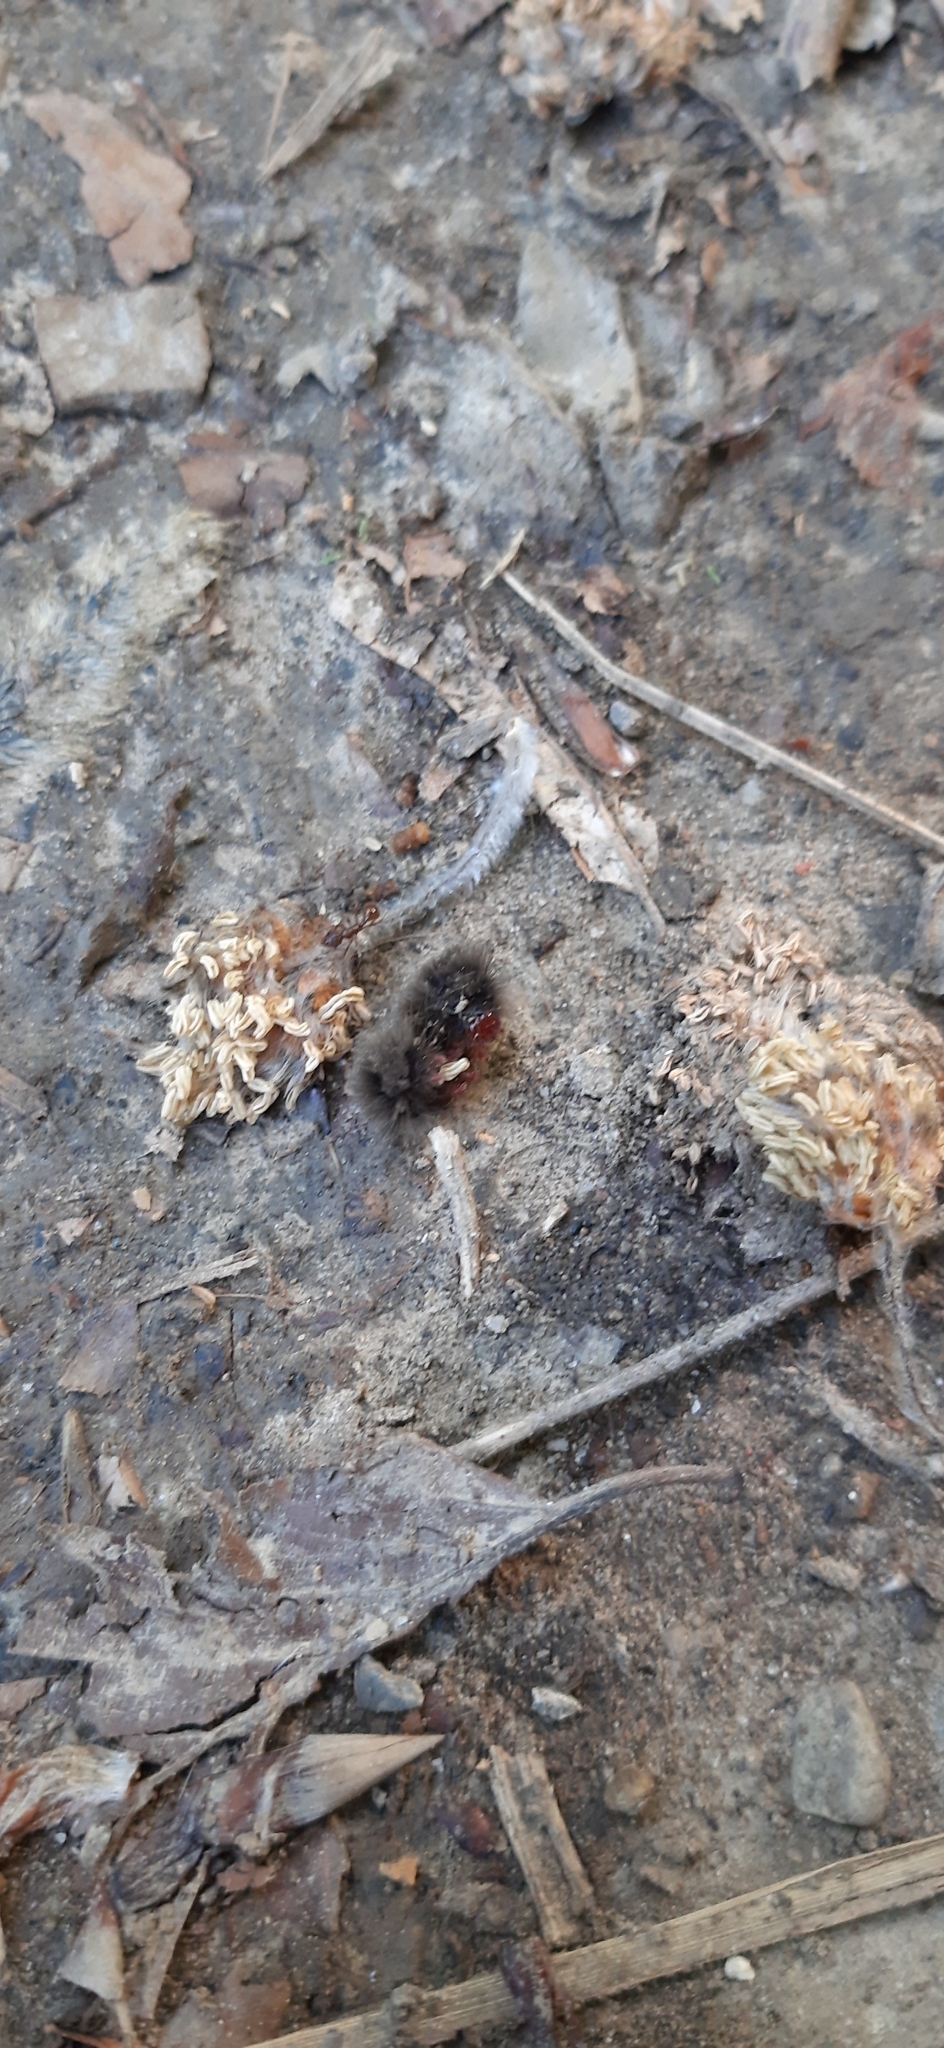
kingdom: Animalia
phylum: Arthropoda
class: Insecta
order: Lepidoptera
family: Erebidae
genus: Amata
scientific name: Amata phegea
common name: Nine-spotted
